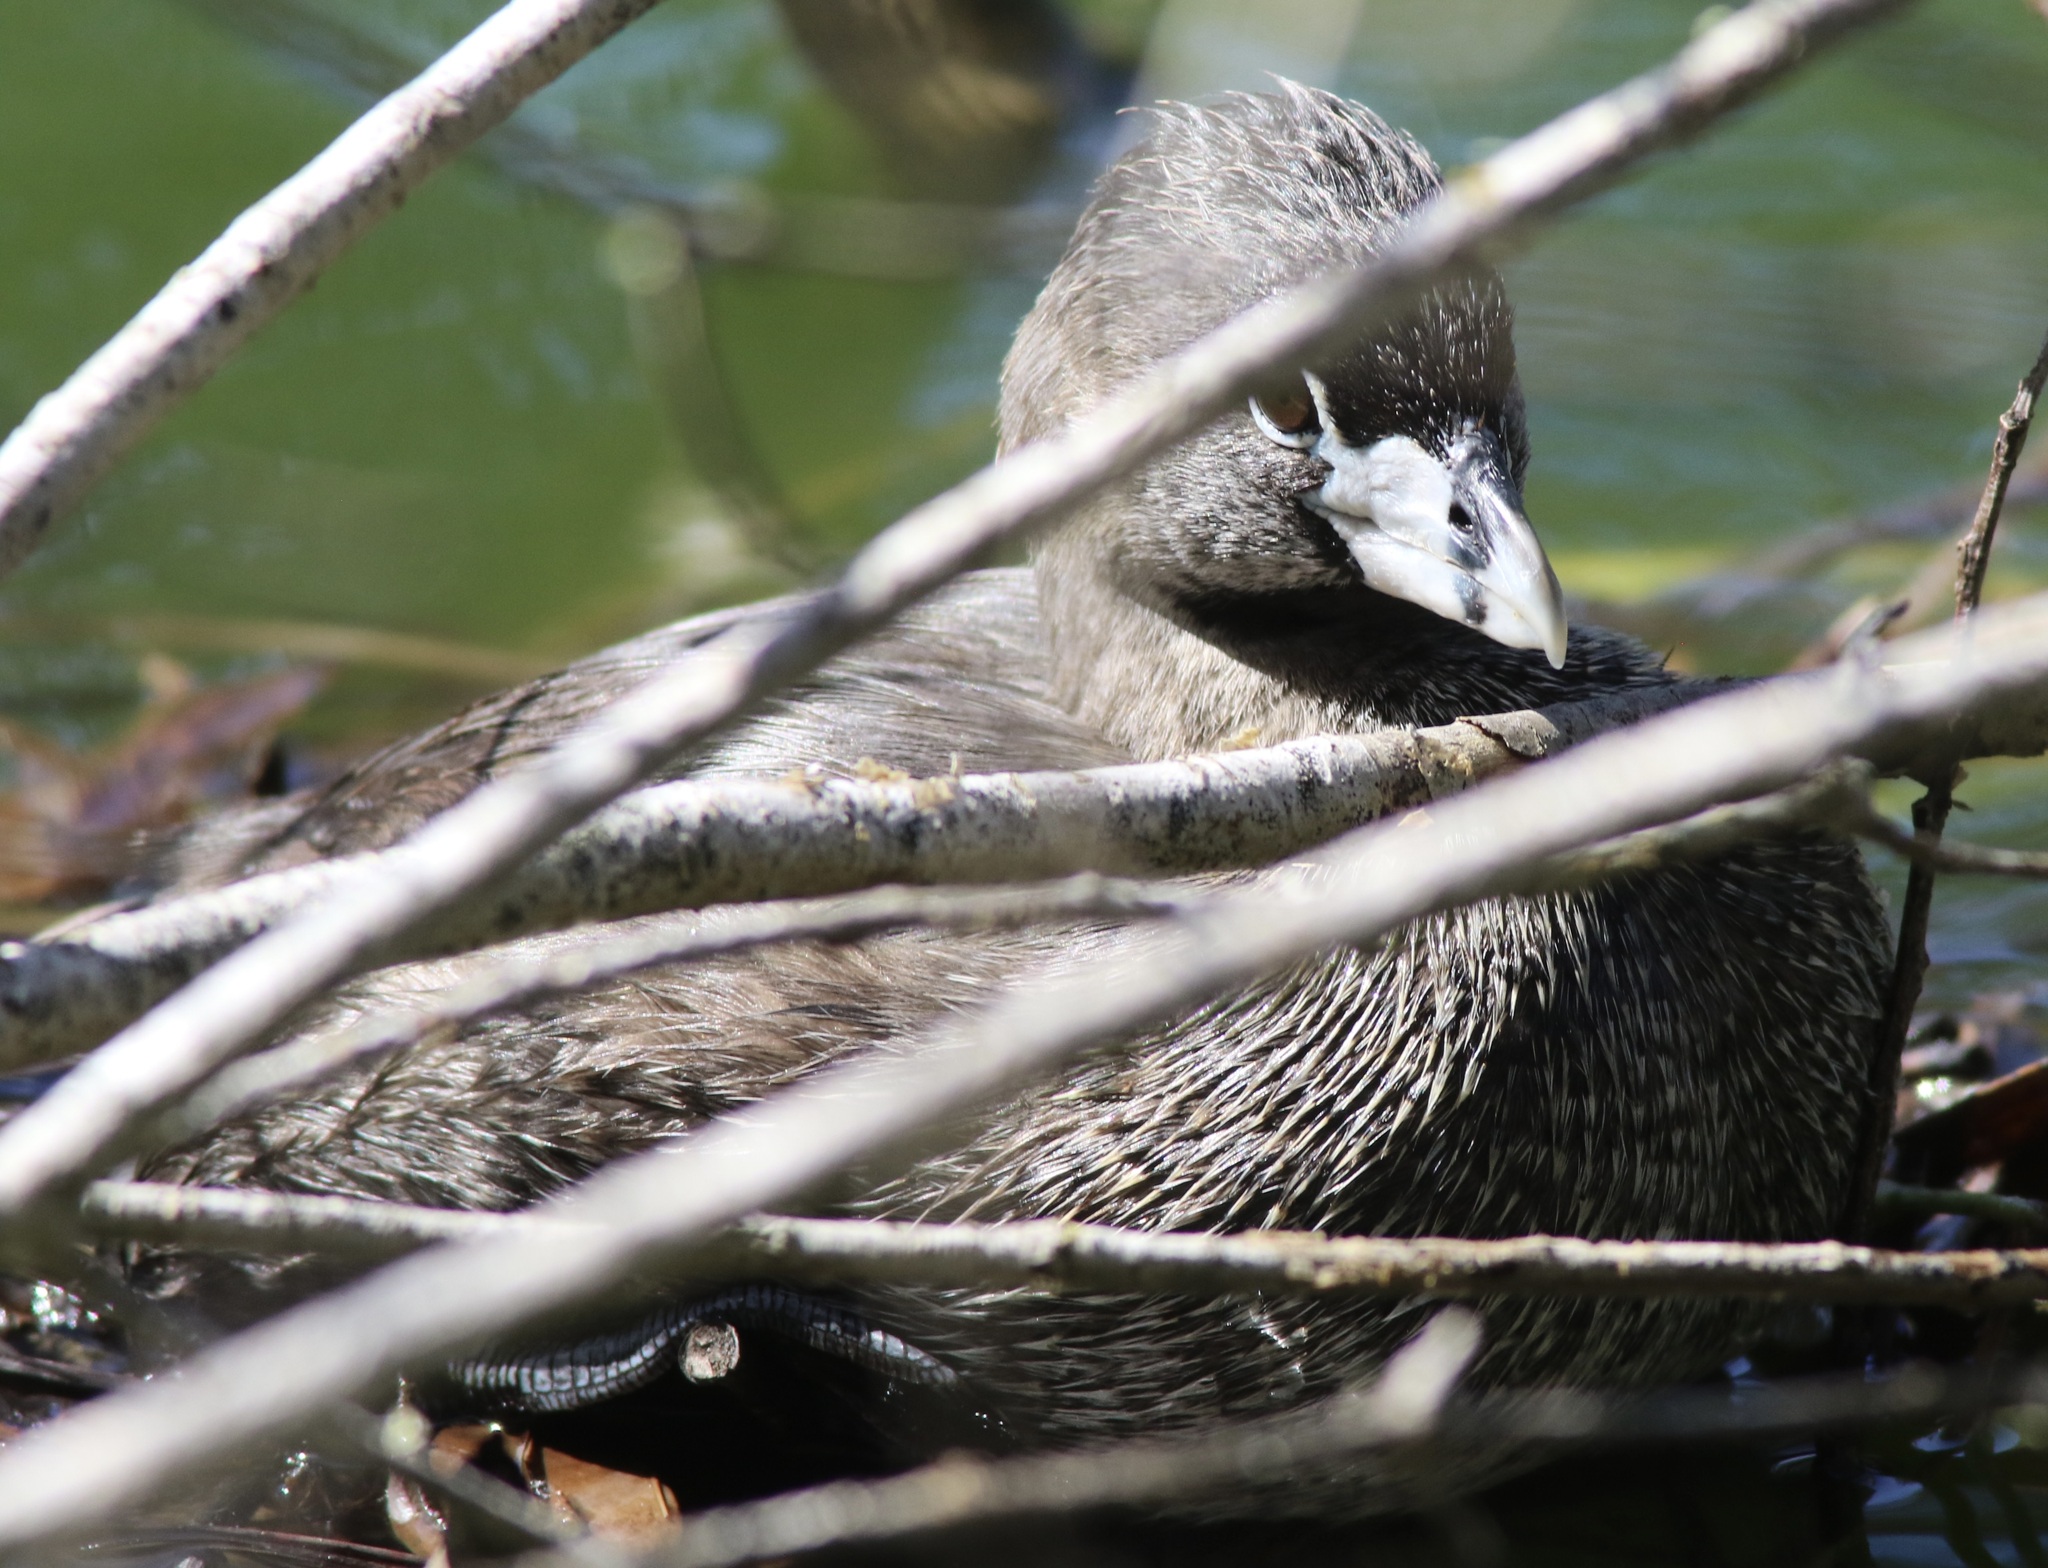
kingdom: Animalia
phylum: Chordata
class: Aves
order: Podicipediformes
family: Podicipedidae
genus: Podilymbus
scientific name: Podilymbus podiceps
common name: Pied-billed grebe
